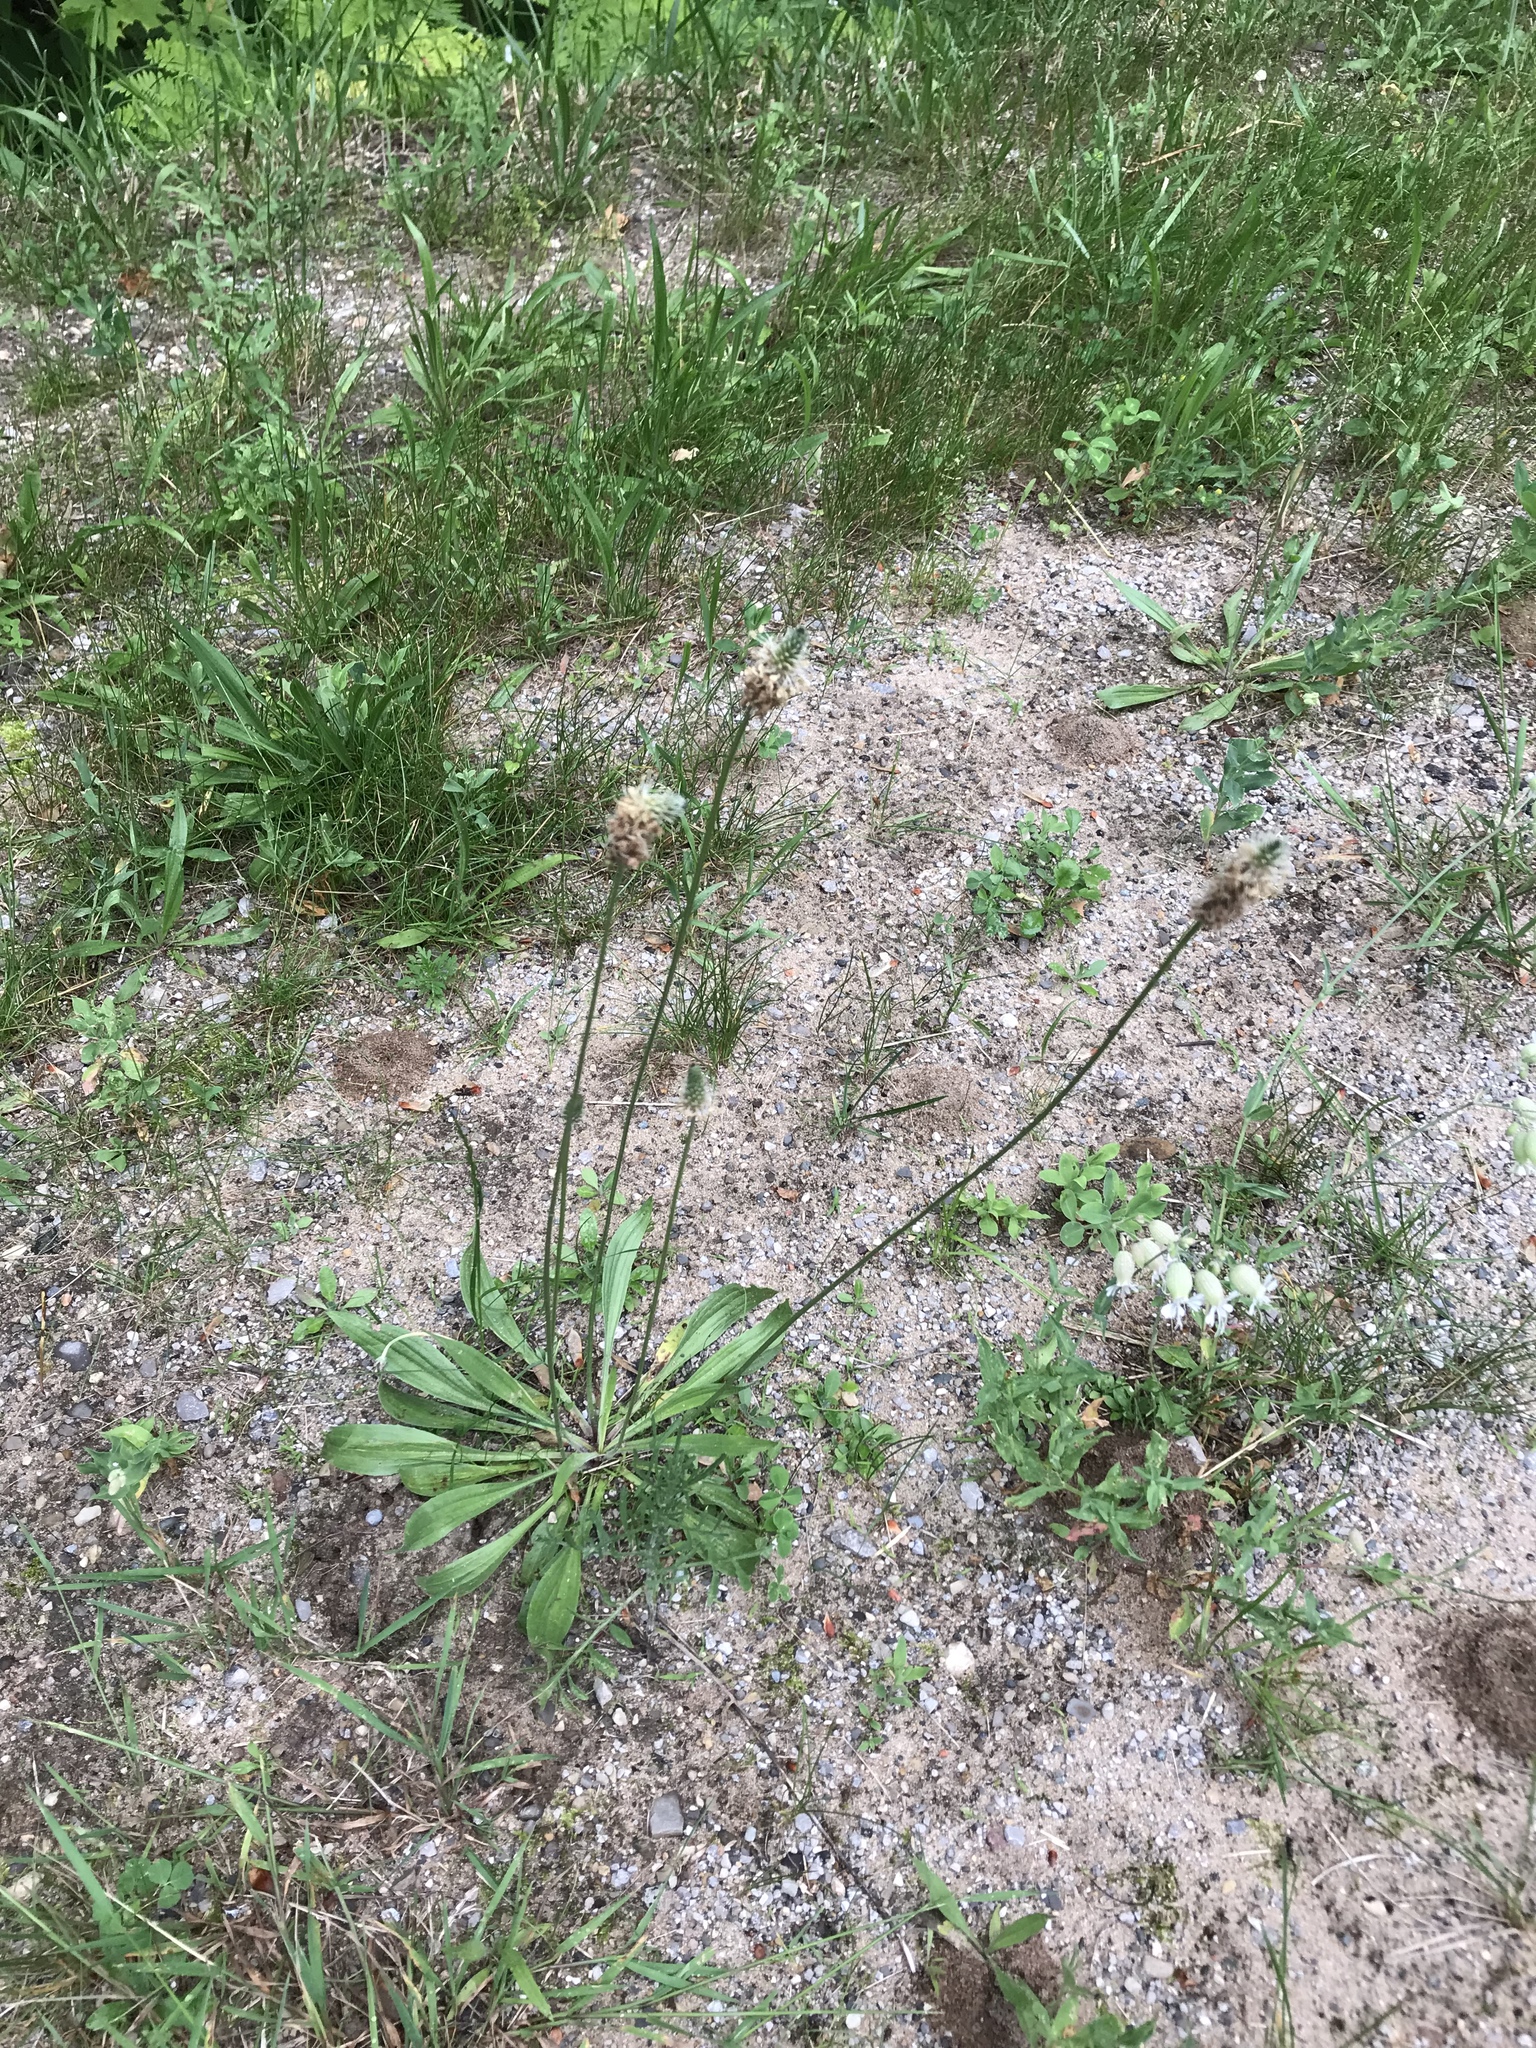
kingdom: Plantae
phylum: Tracheophyta
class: Magnoliopsida
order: Lamiales
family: Plantaginaceae
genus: Plantago
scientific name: Plantago lanceolata
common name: Ribwort plantain
